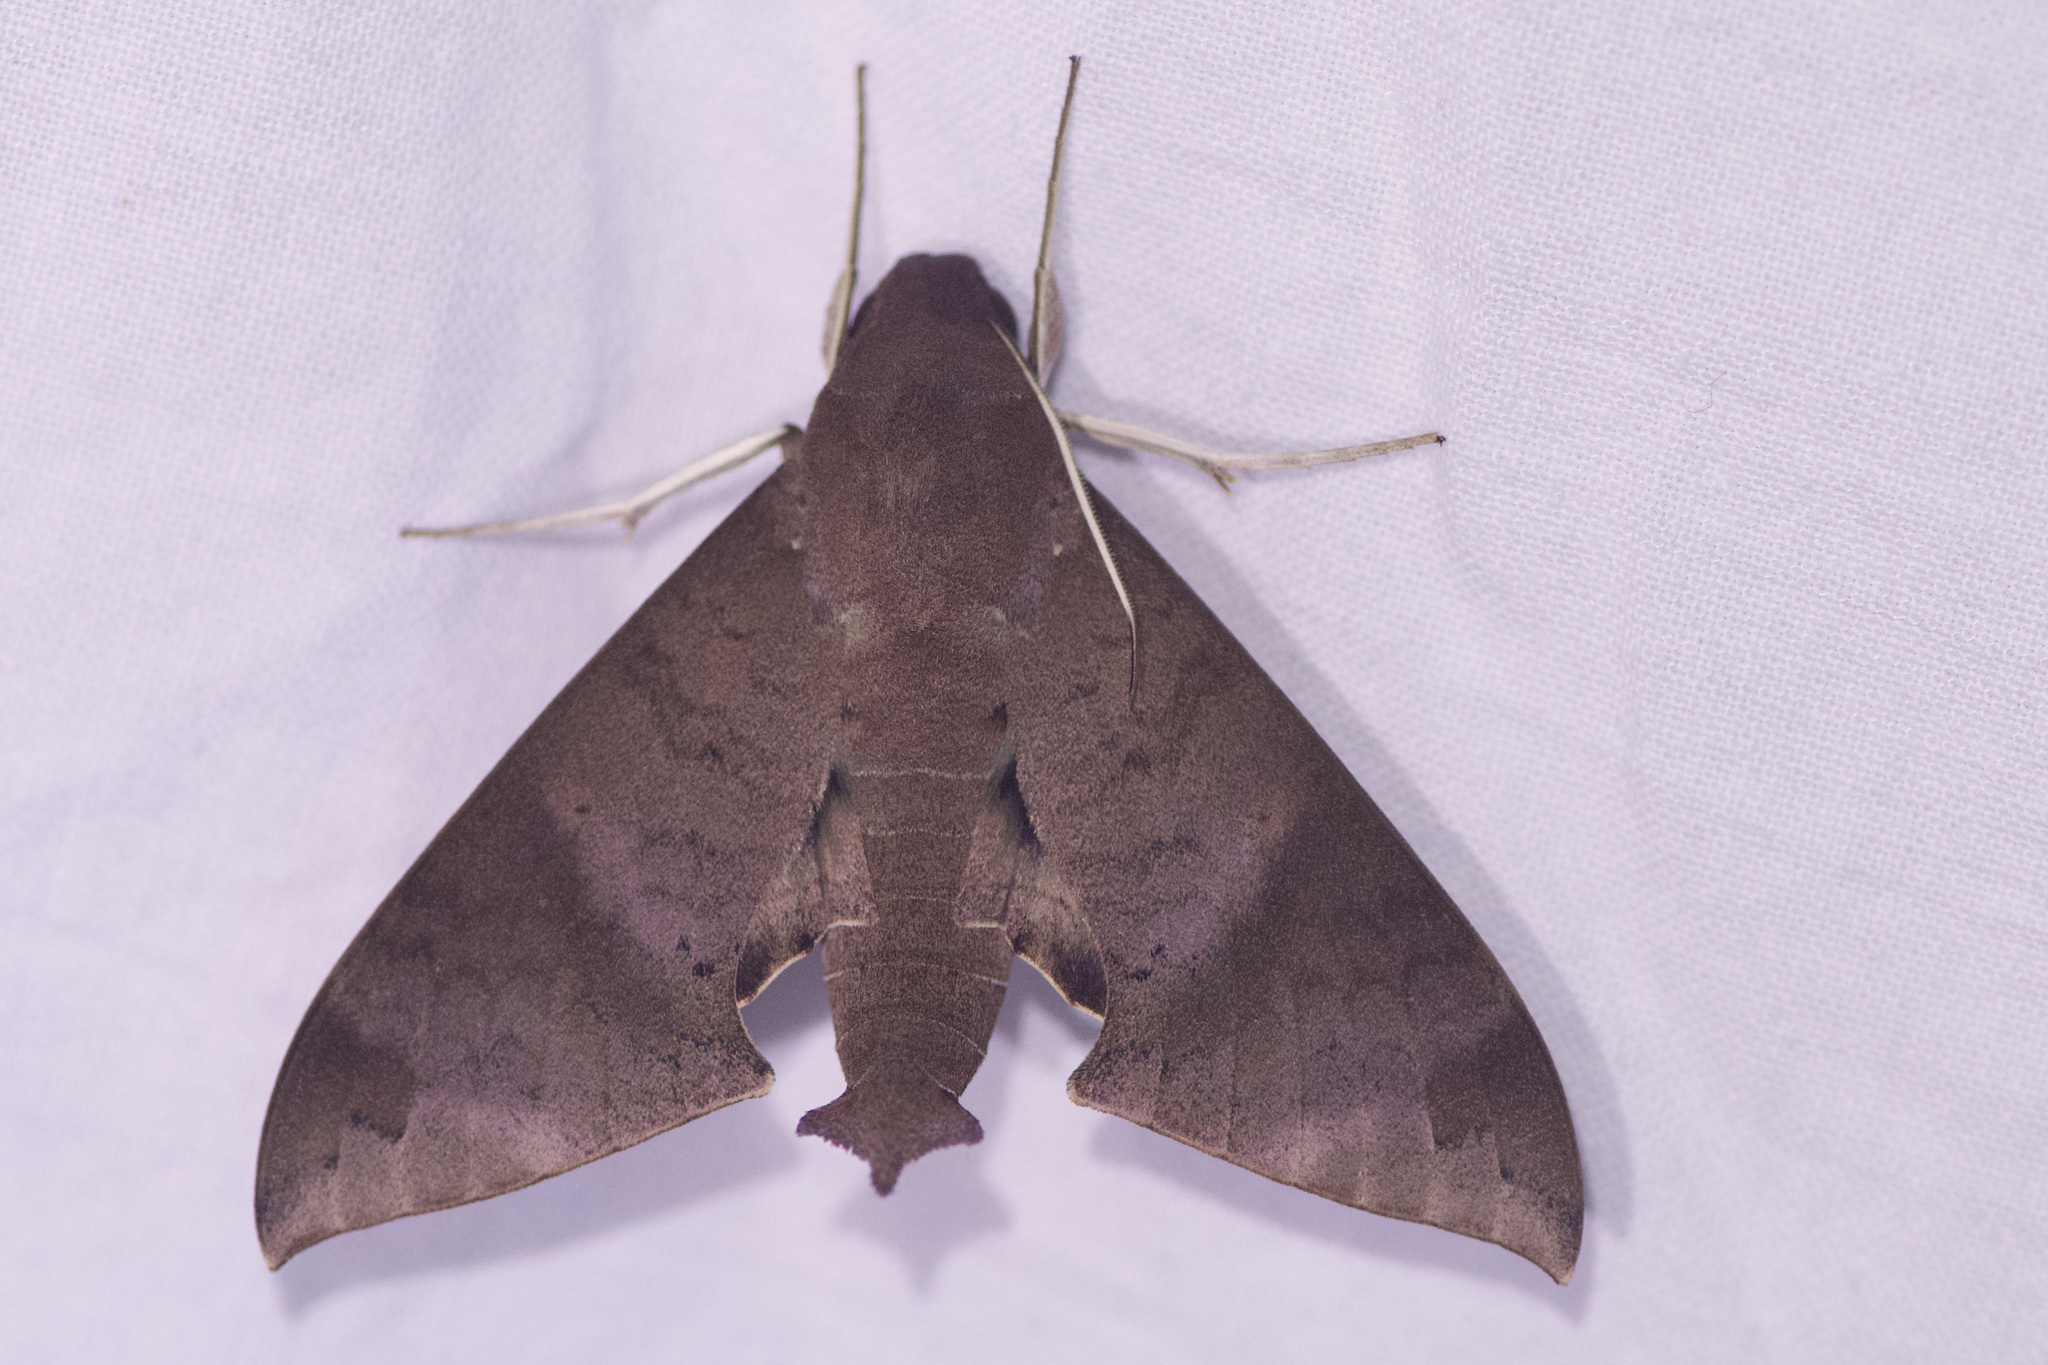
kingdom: Animalia
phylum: Arthropoda
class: Insecta
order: Lepidoptera
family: Sphingidae
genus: Pachylioides
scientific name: Pachylioides resumens
